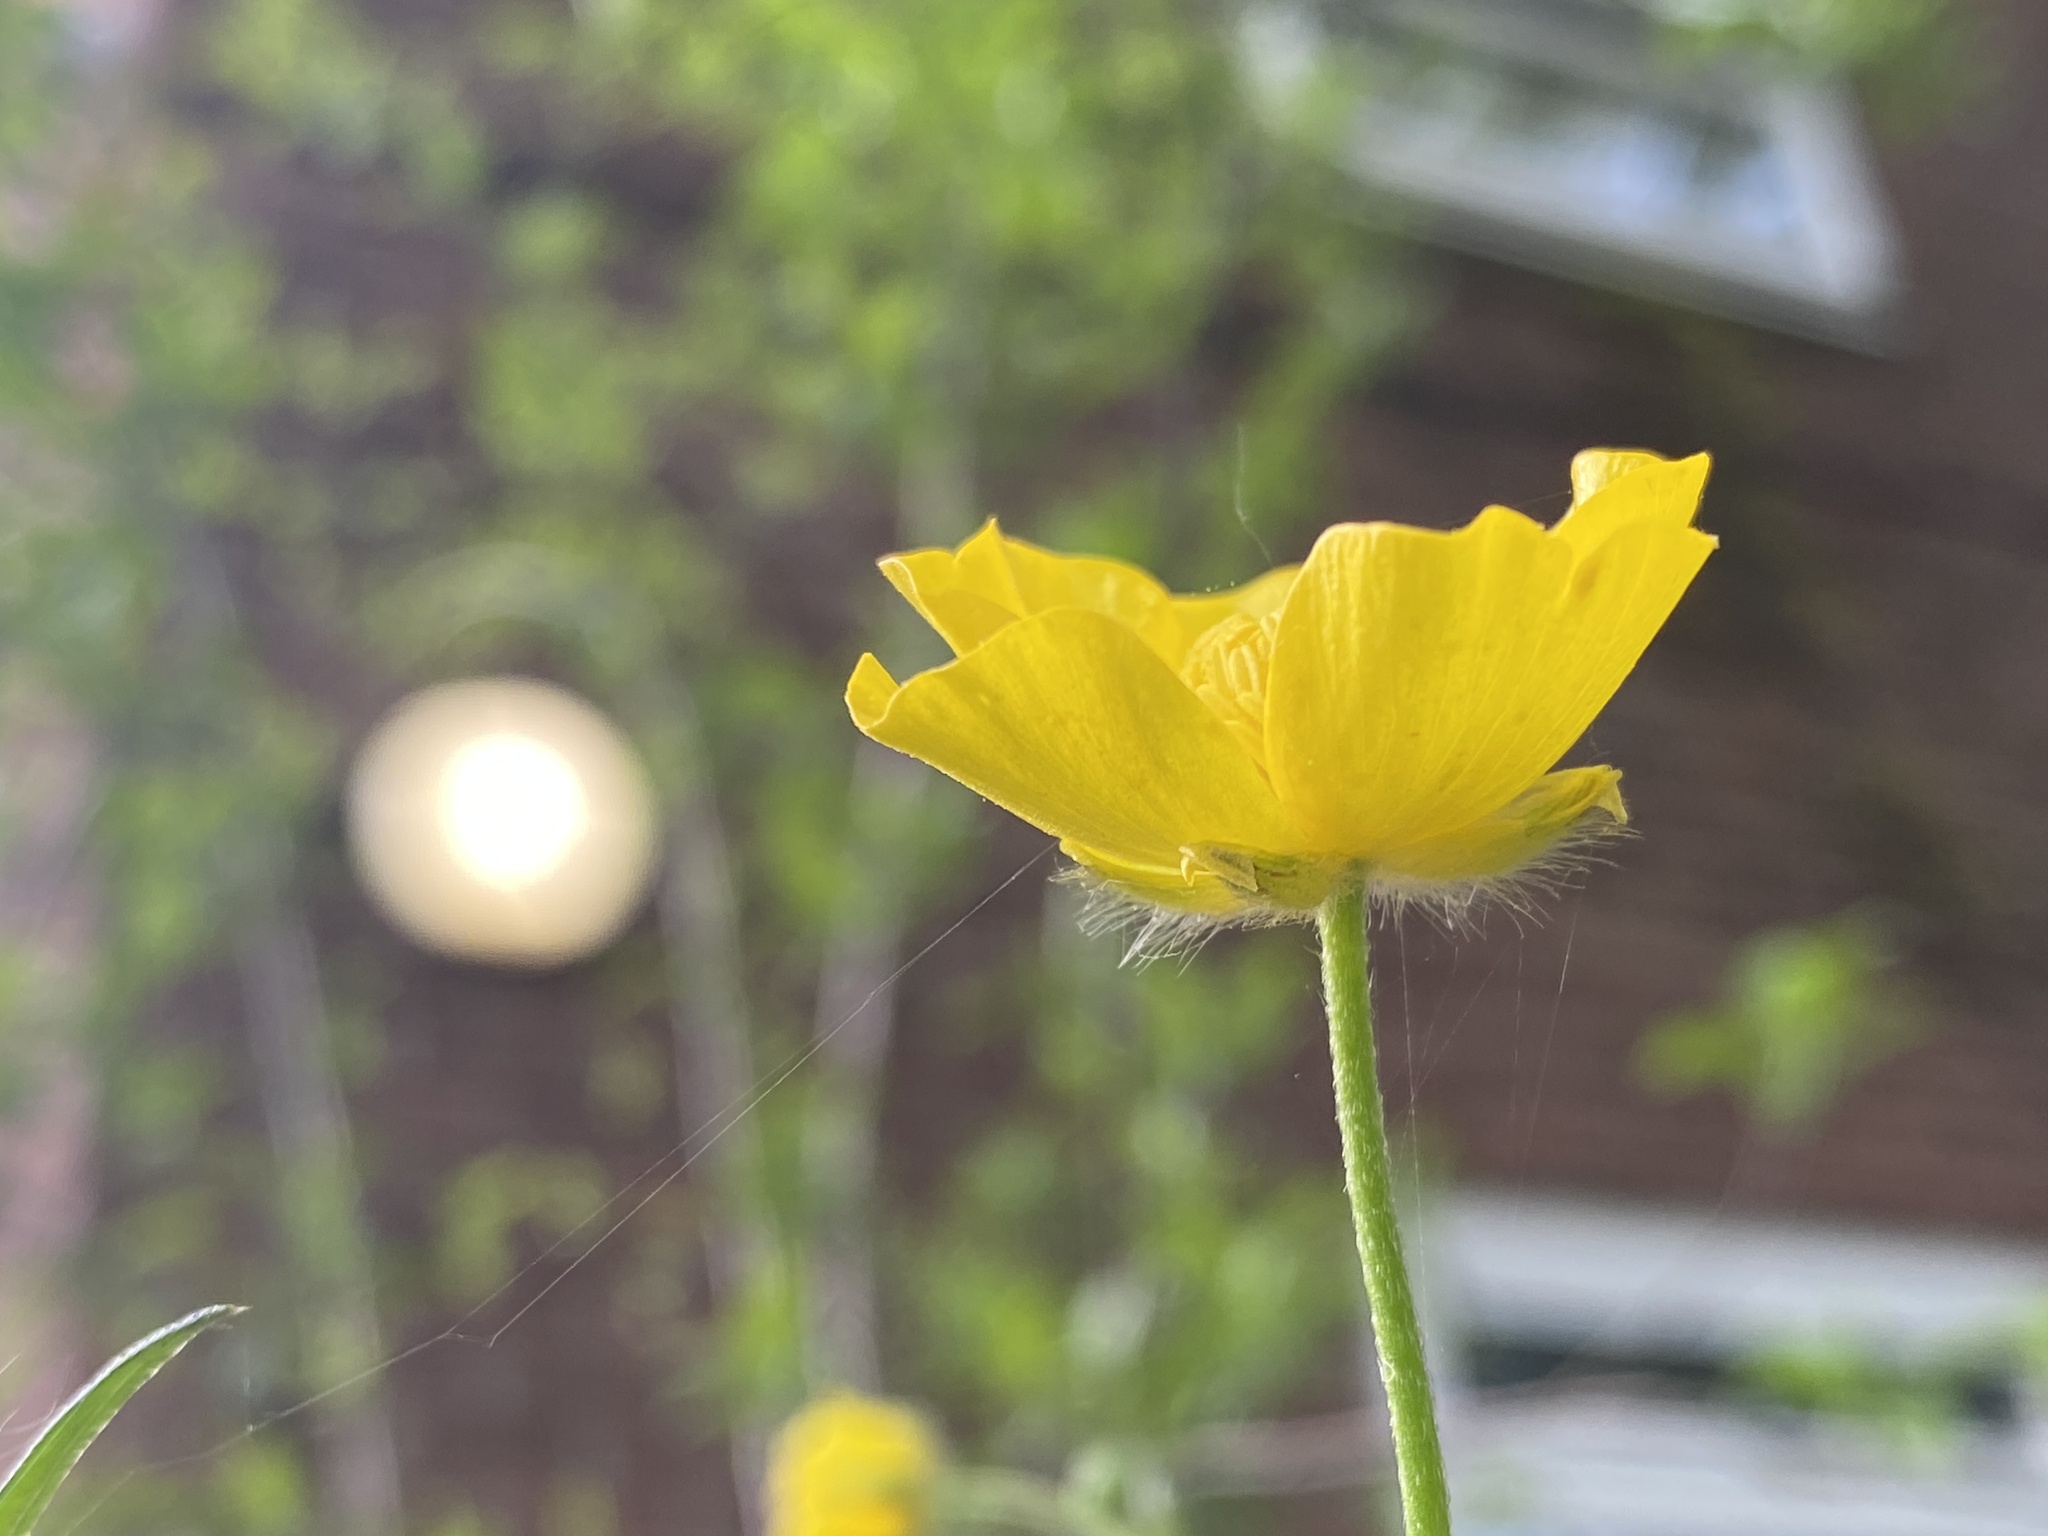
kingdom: Plantae
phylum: Tracheophyta
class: Magnoliopsida
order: Ranunculales
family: Ranunculaceae
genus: Ranunculus
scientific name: Ranunculus acris
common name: Meadow buttercup
